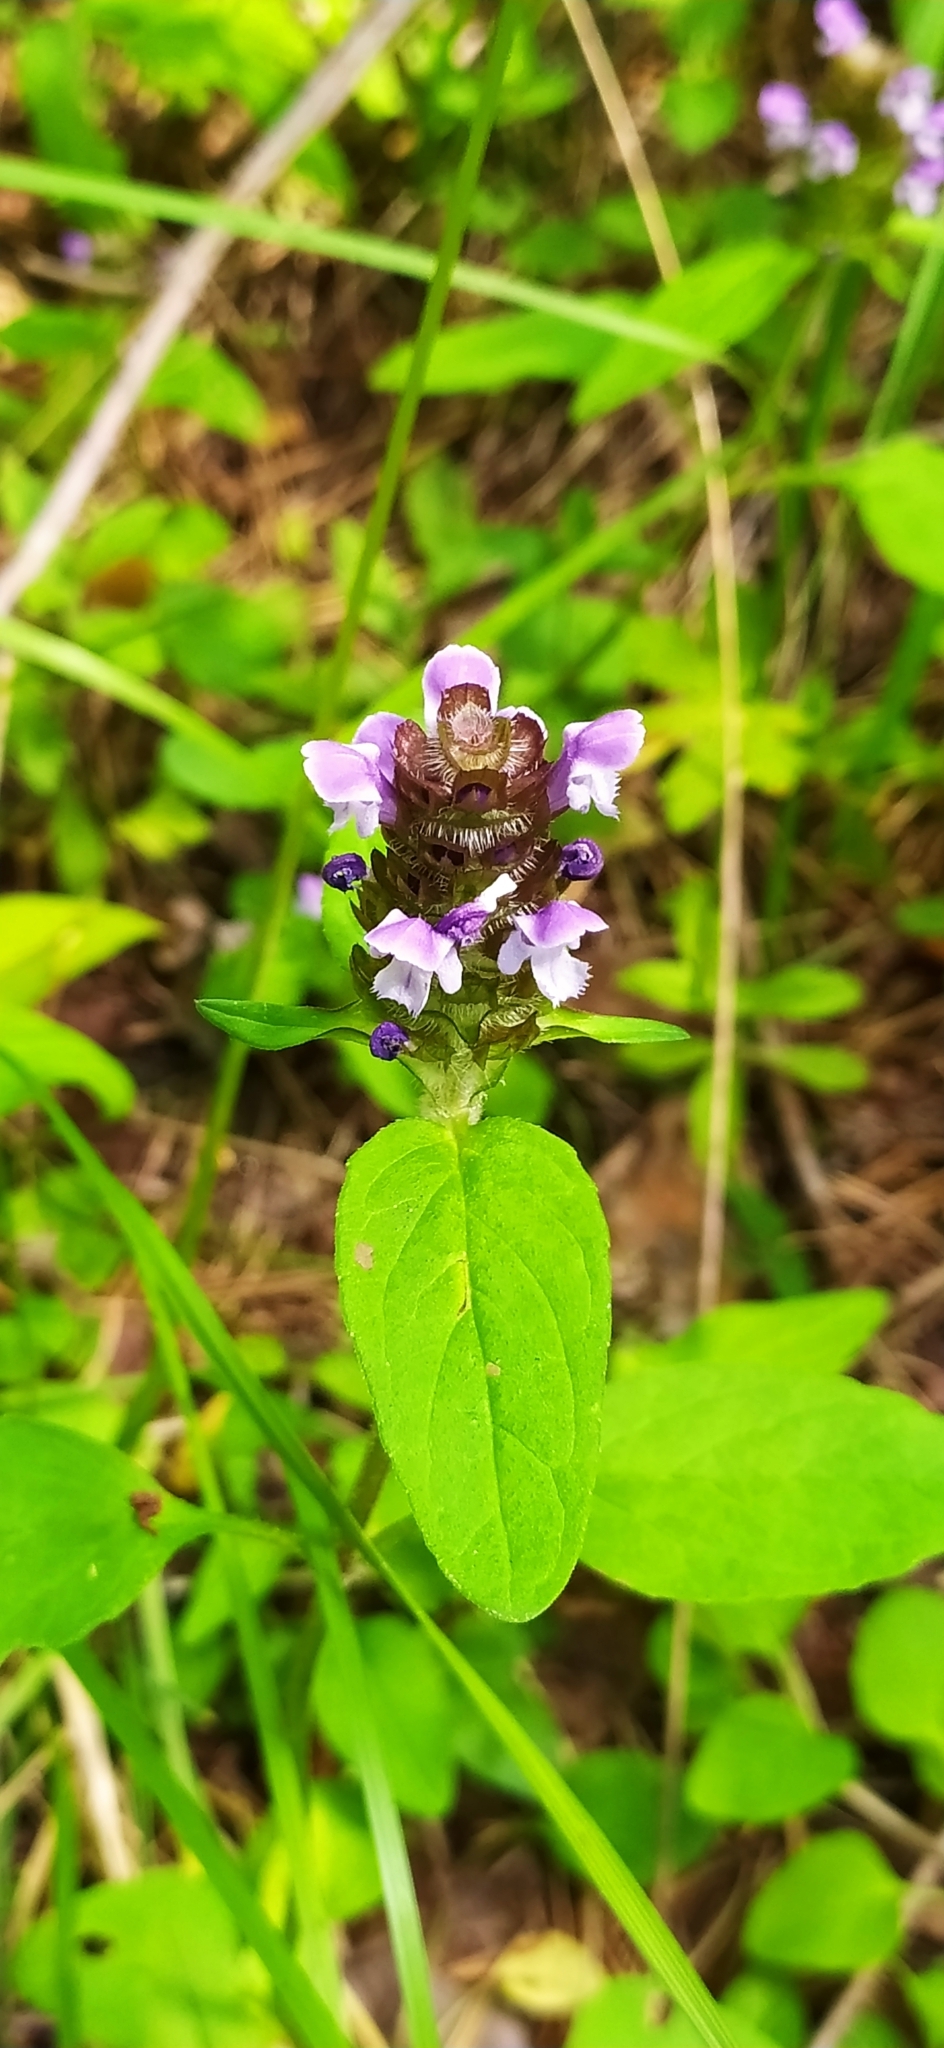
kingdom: Plantae
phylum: Tracheophyta
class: Magnoliopsida
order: Lamiales
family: Lamiaceae
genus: Prunella
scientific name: Prunella vulgaris
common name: Heal-all
